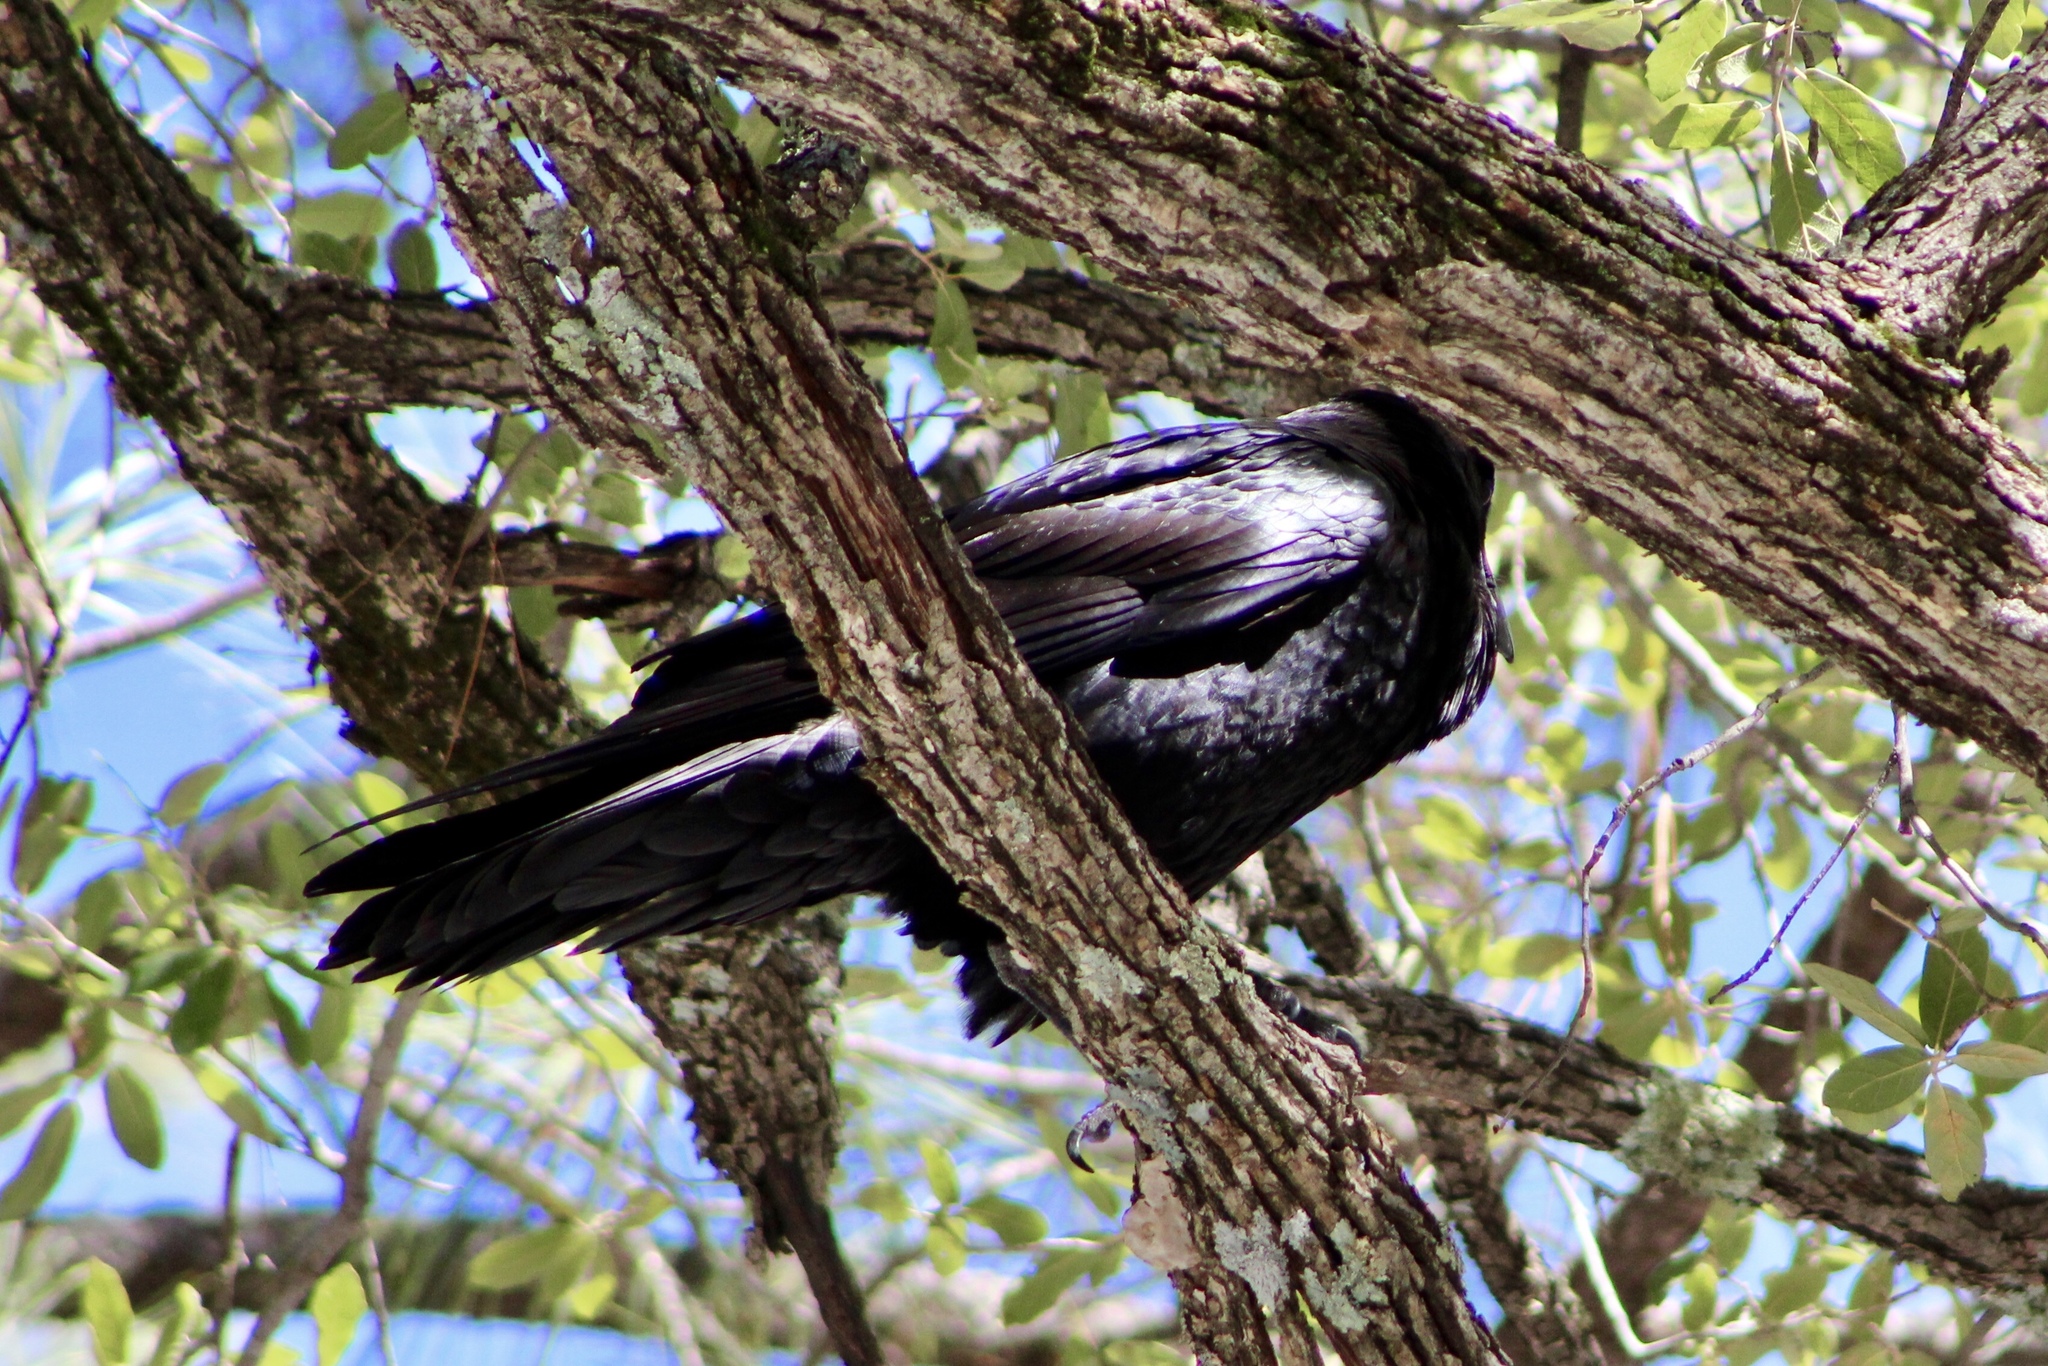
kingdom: Animalia
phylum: Chordata
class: Aves
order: Passeriformes
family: Corvidae
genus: Corvus
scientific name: Corvus corax
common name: Common raven
